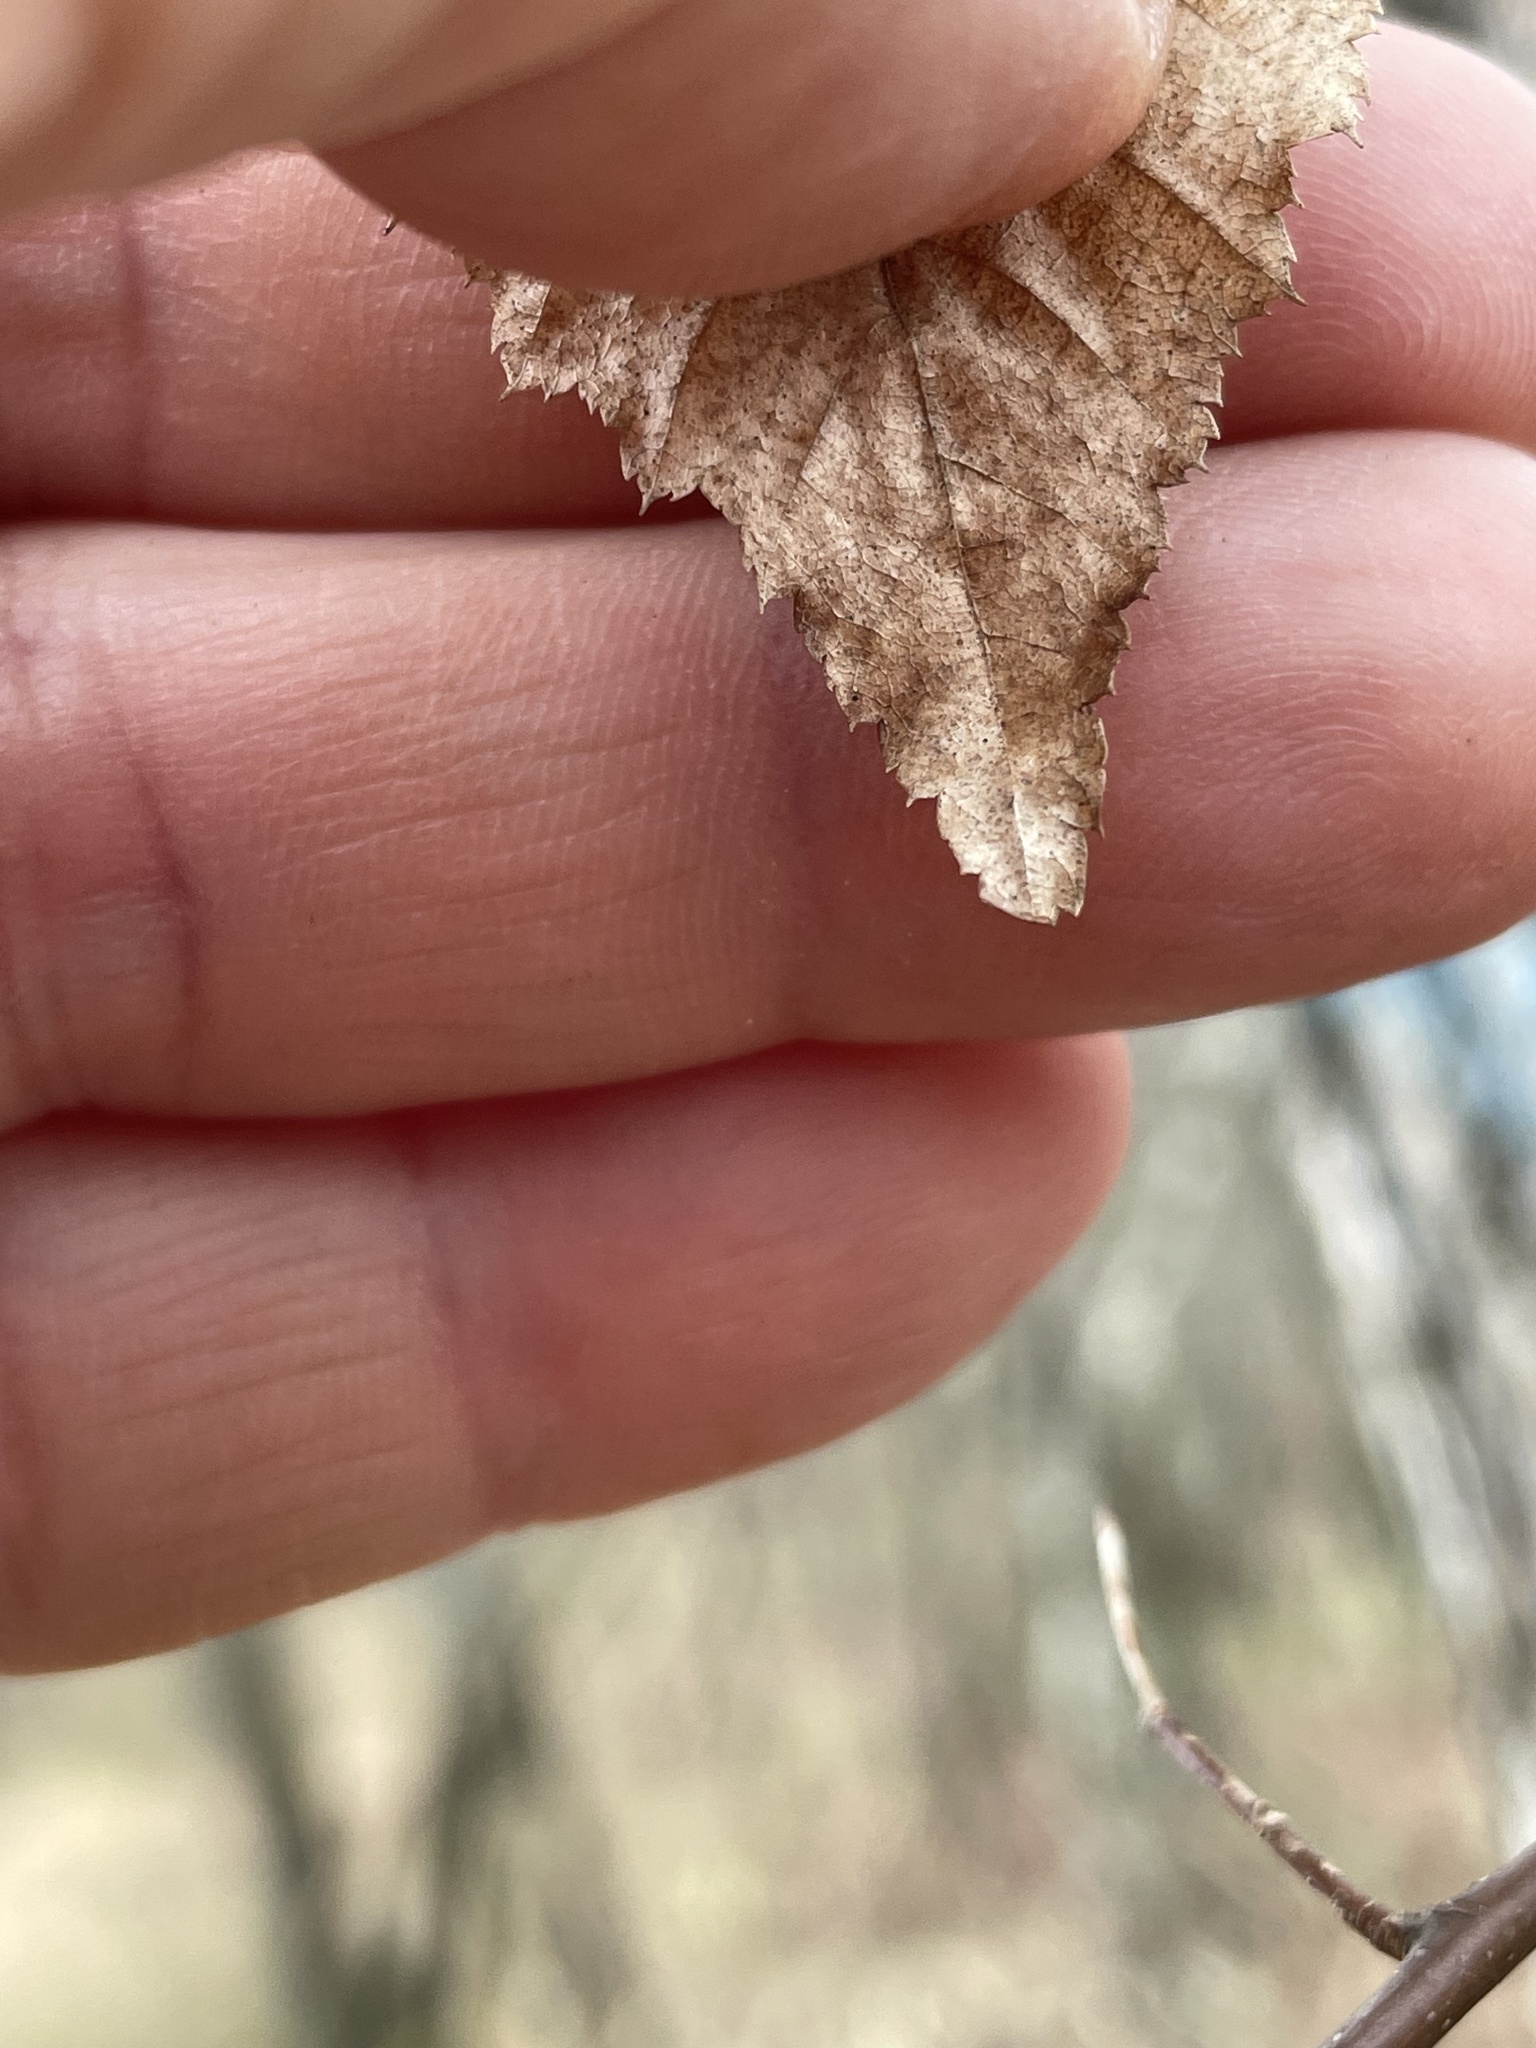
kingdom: Plantae
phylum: Tracheophyta
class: Magnoliopsida
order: Fagales
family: Betulaceae
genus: Carpinus
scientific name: Carpinus caroliniana
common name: American hornbeam
